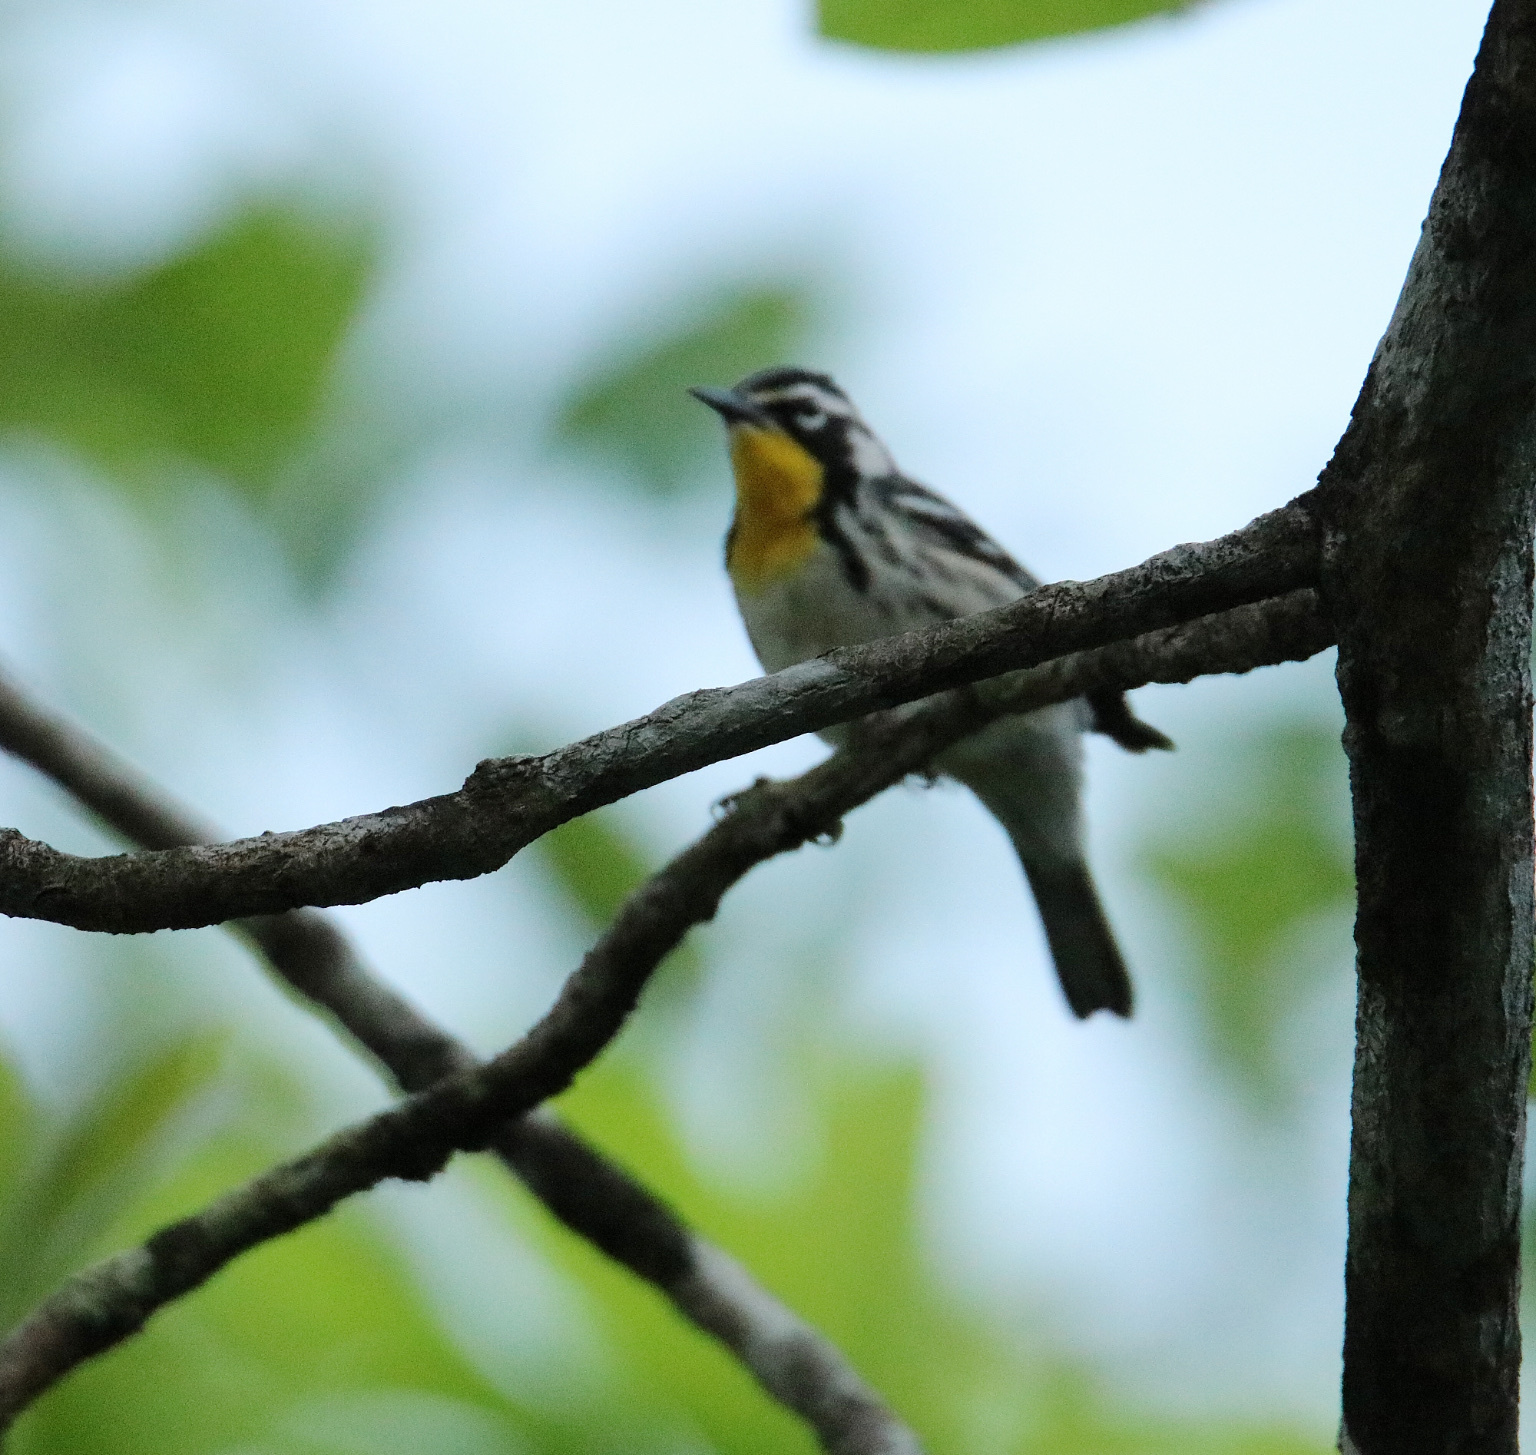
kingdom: Animalia
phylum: Chordata
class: Aves
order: Passeriformes
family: Parulidae
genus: Setophaga
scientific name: Setophaga dominica
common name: Yellow-throated warbler
